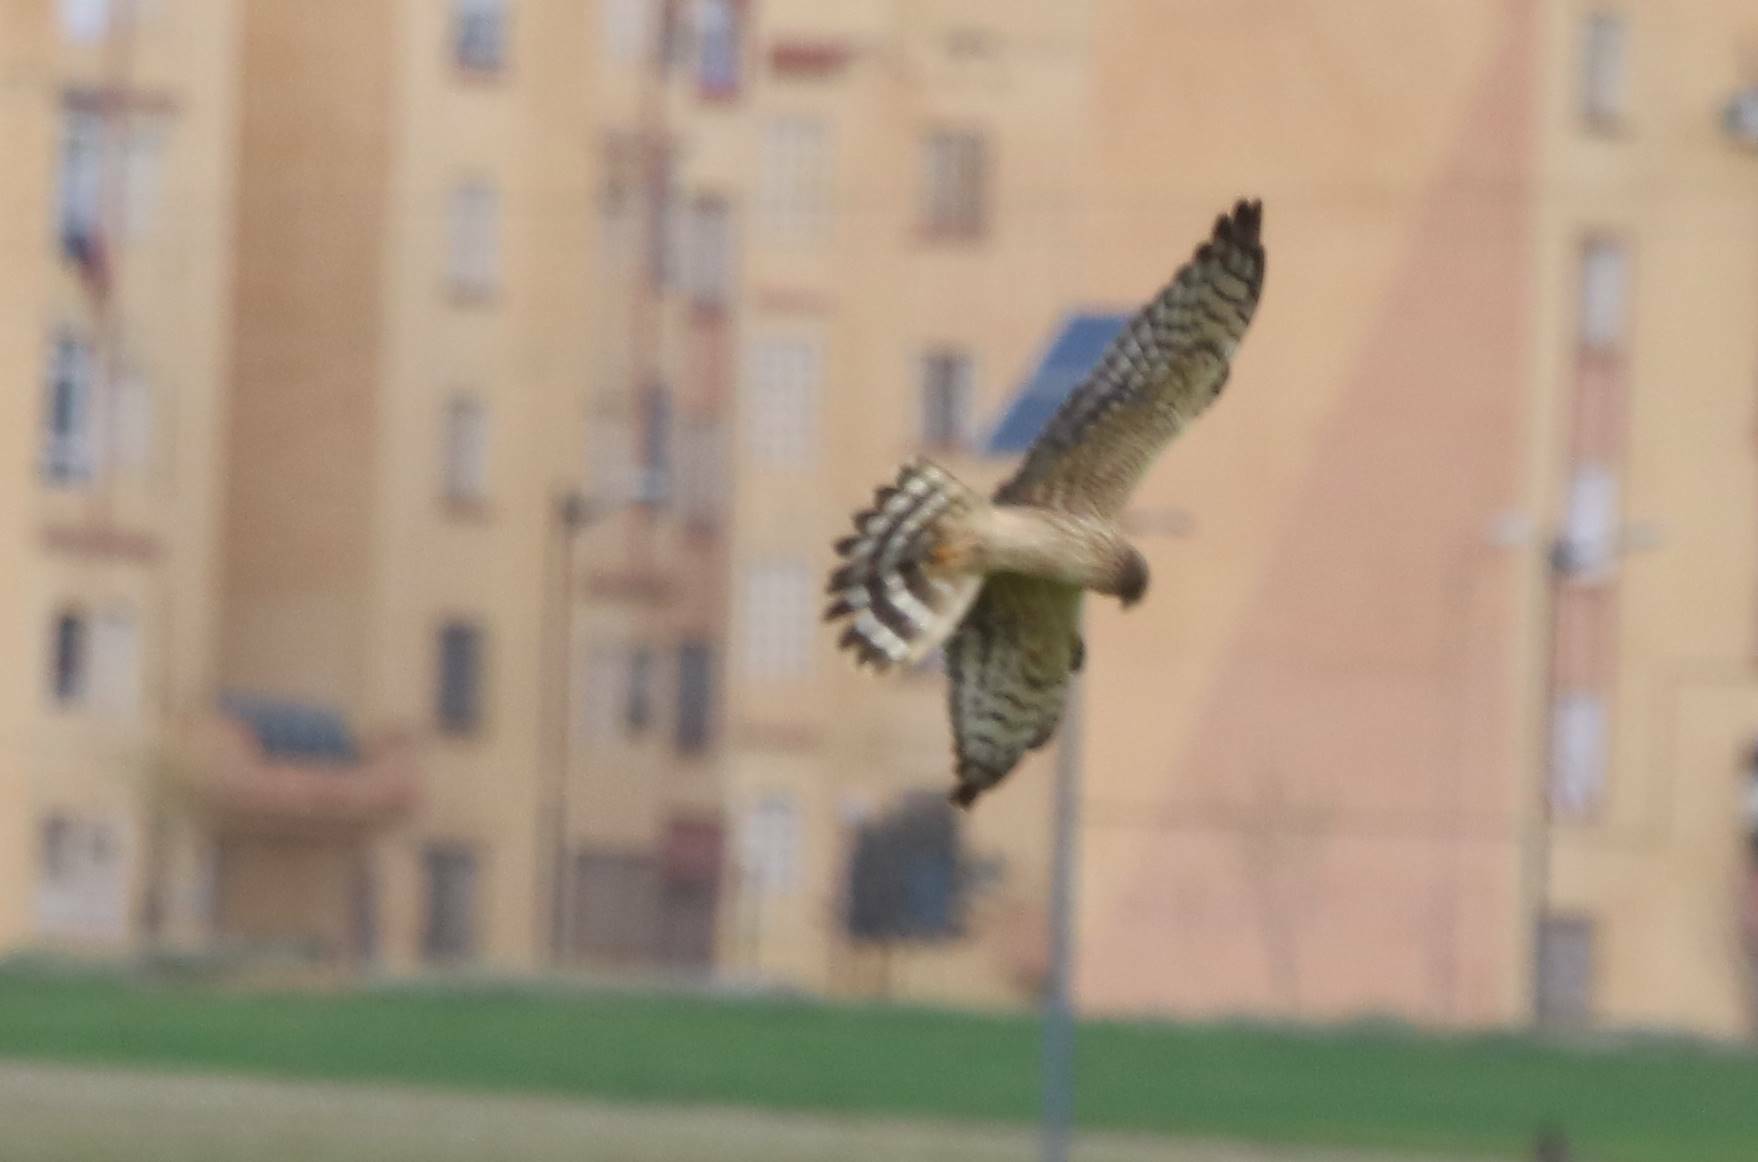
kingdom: Animalia
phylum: Chordata
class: Aves
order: Accipitriformes
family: Accipitridae
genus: Circus
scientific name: Circus pygargus
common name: Montagu's harrier
